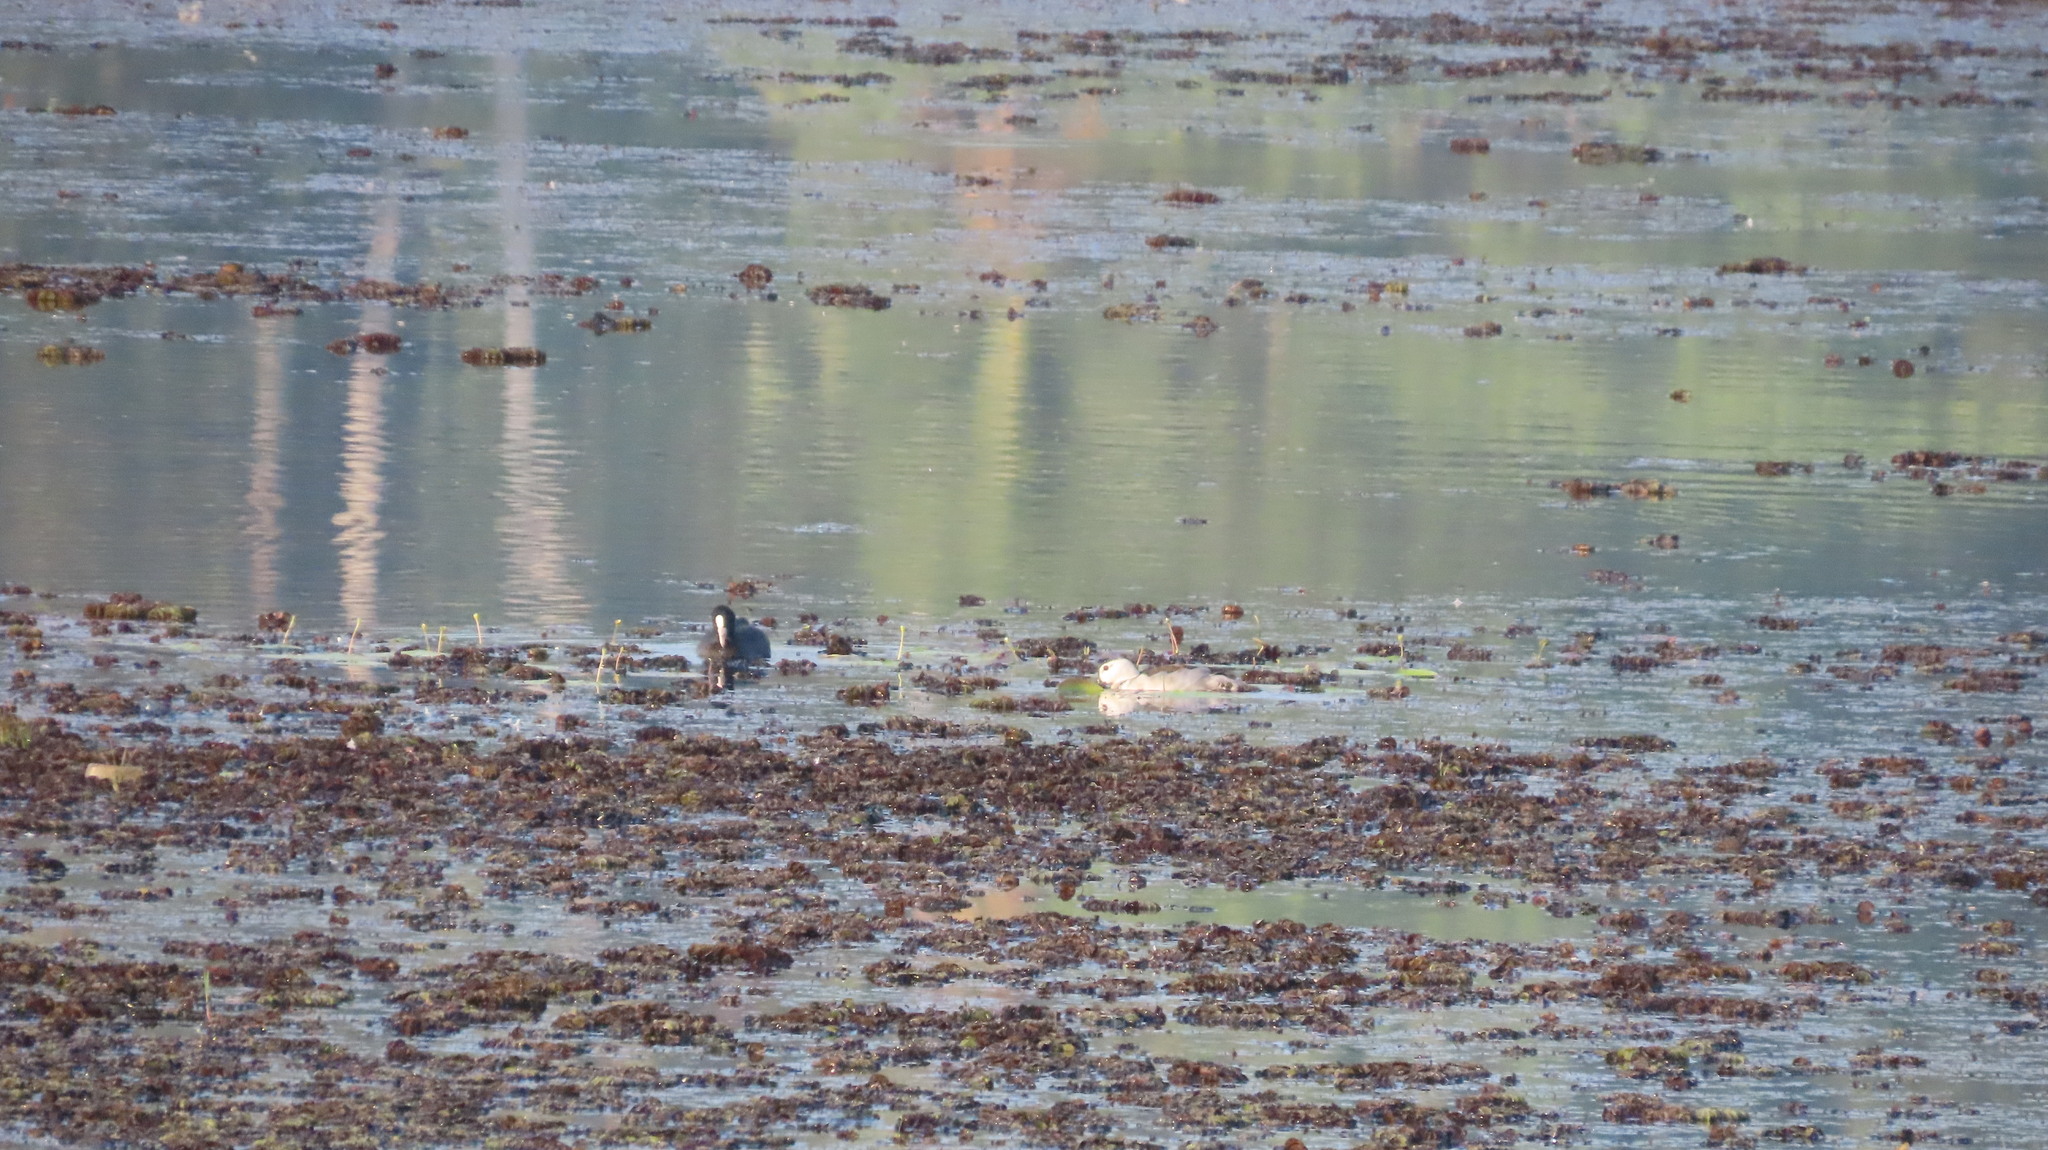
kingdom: Animalia
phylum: Chordata
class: Aves
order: Anseriformes
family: Anatidae
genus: Nettapus
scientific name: Nettapus coromandelianus
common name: Cotton pygmy-goose
